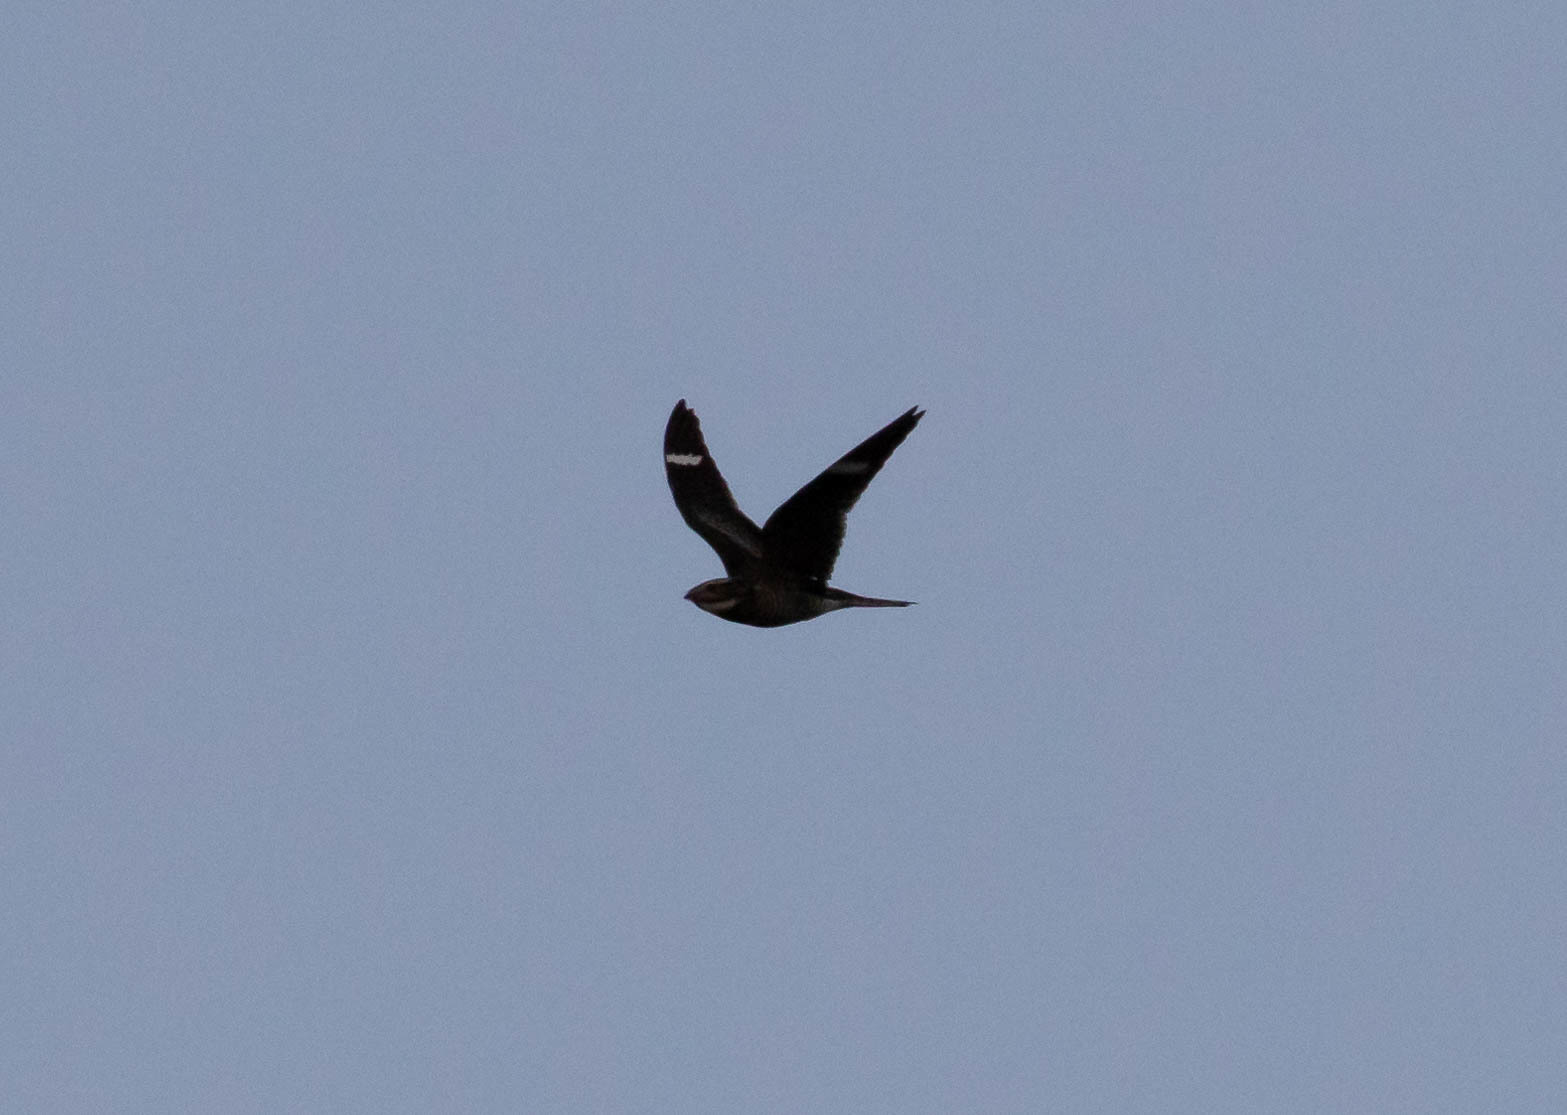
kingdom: Animalia
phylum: Chordata
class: Aves
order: Caprimulgiformes
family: Caprimulgidae
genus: Chordeiles
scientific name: Chordeiles minor
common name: Common nighthawk
